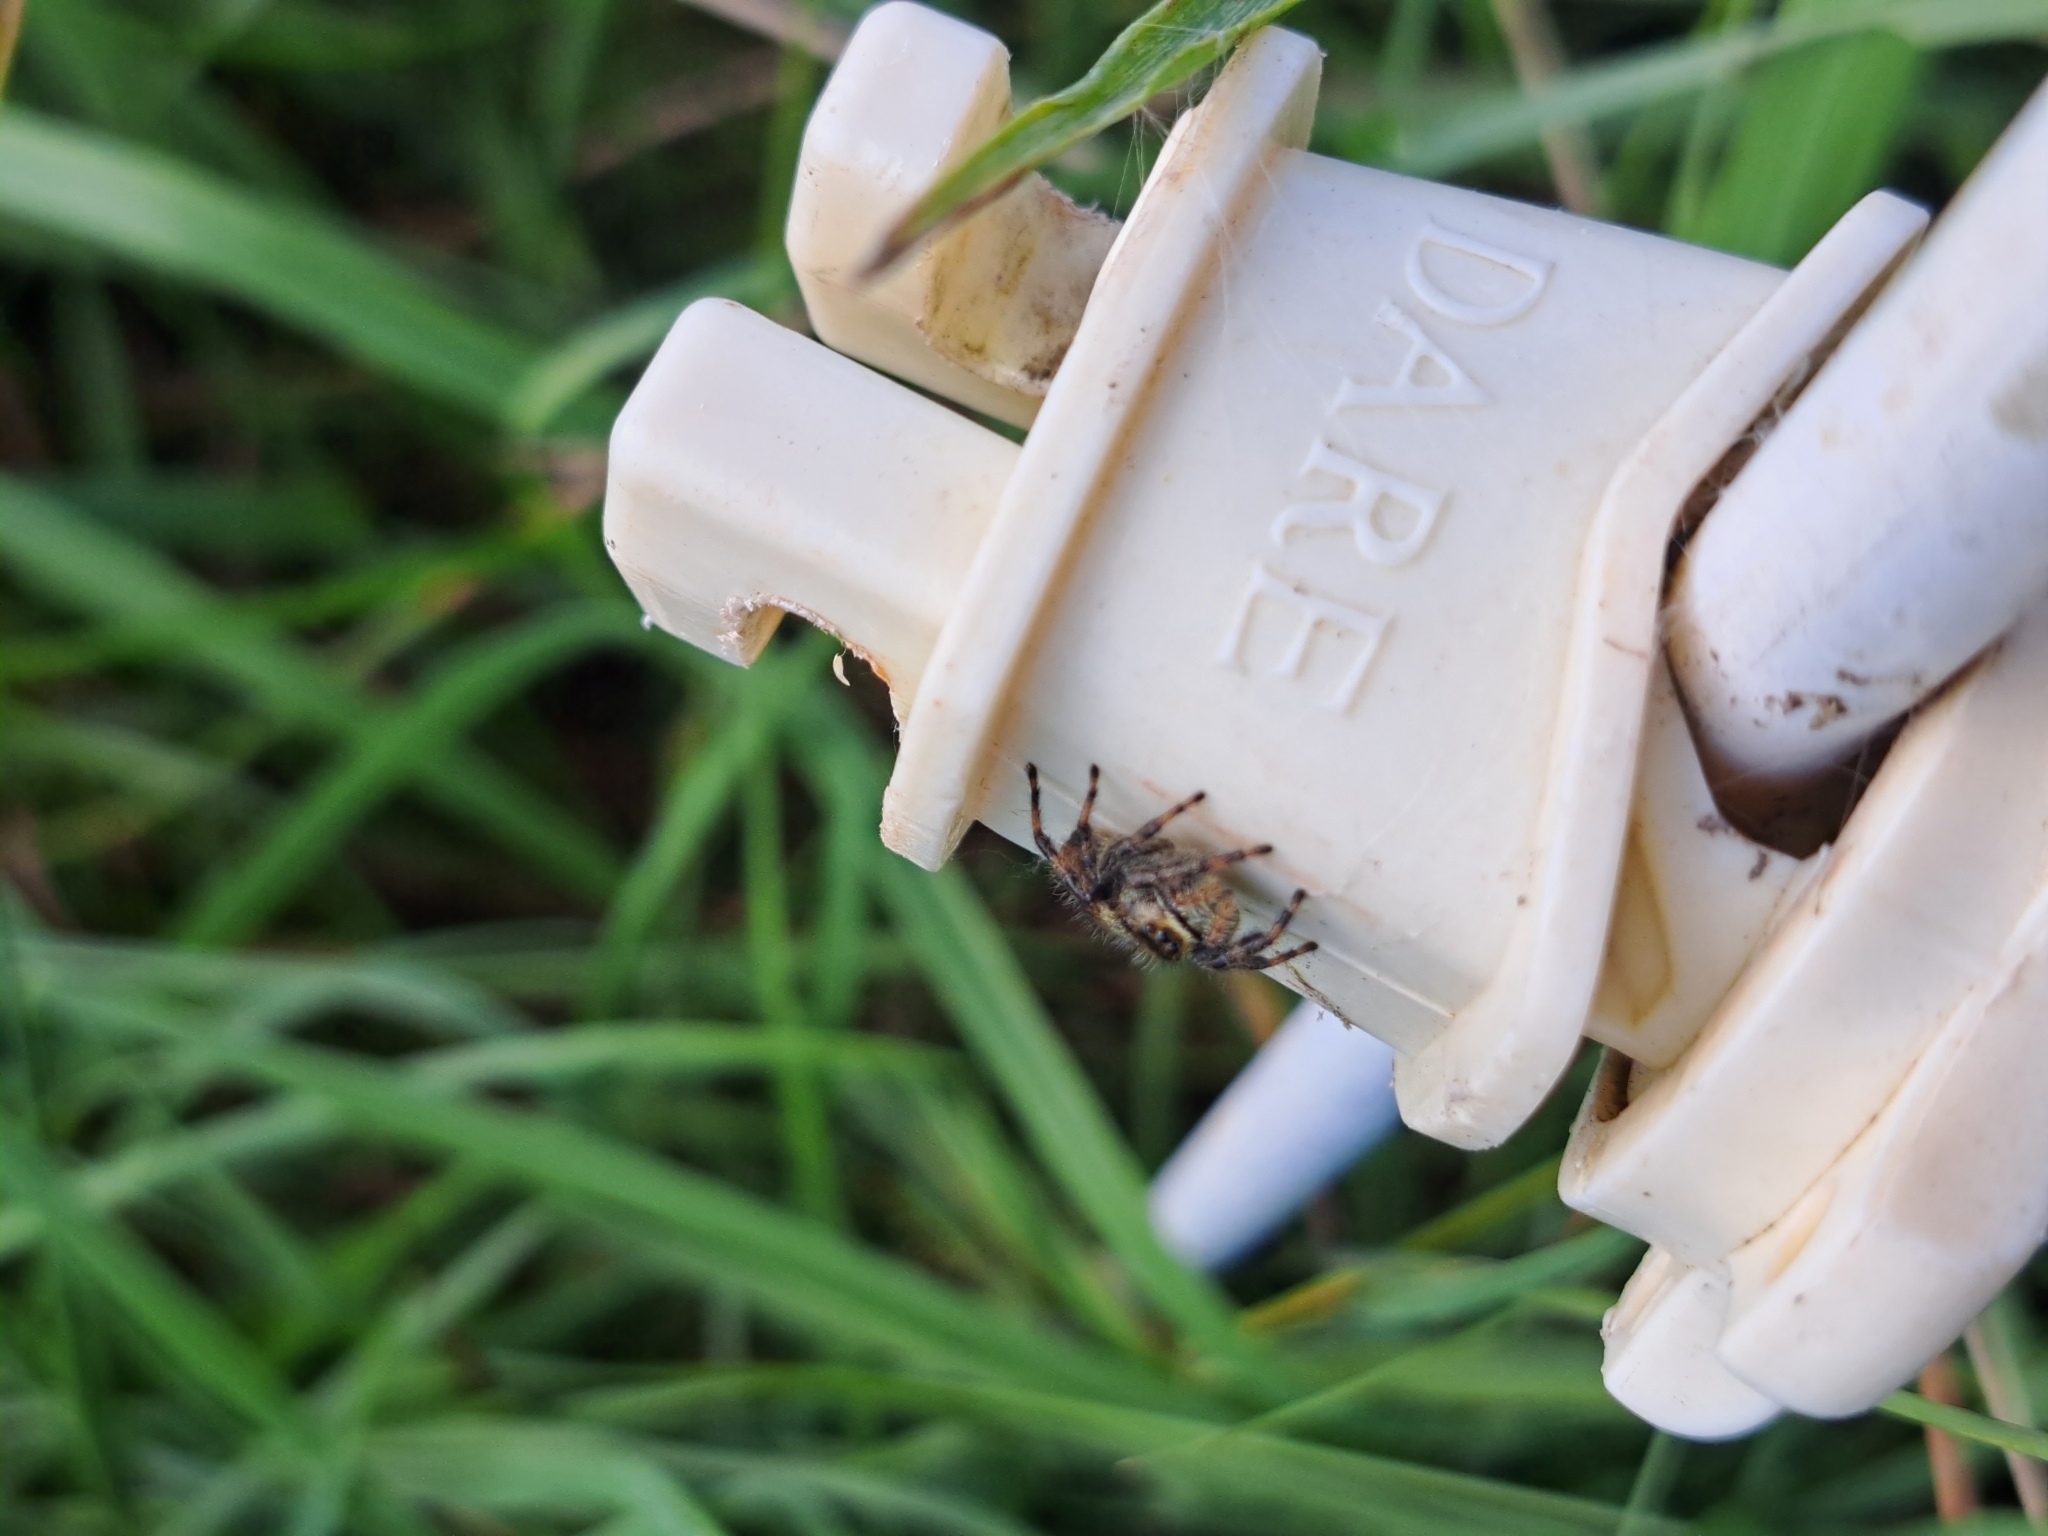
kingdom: Animalia
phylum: Arthropoda
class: Arachnida
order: Araneae
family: Salticidae
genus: Phidippus
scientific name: Phidippus clarus
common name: Brilliant jumping spider
